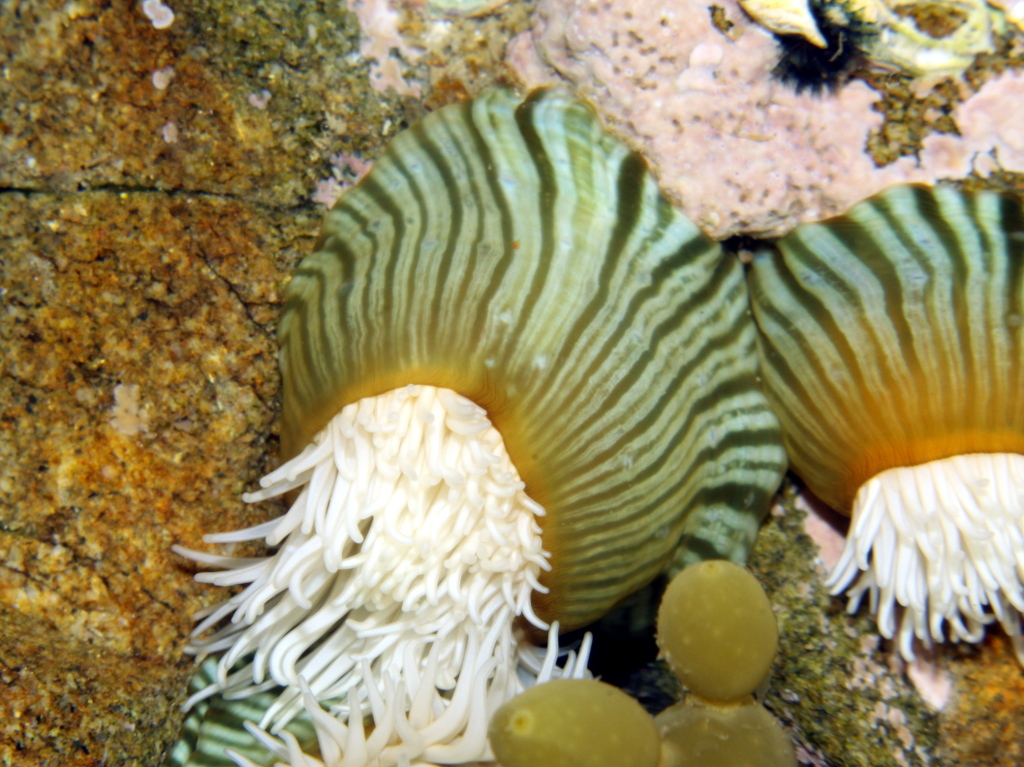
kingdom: Animalia
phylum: Cnidaria
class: Anthozoa
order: Actiniaria
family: Sagartiidae
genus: Anthothoe
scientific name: Anthothoe albocincta
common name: Orange striped anemone
